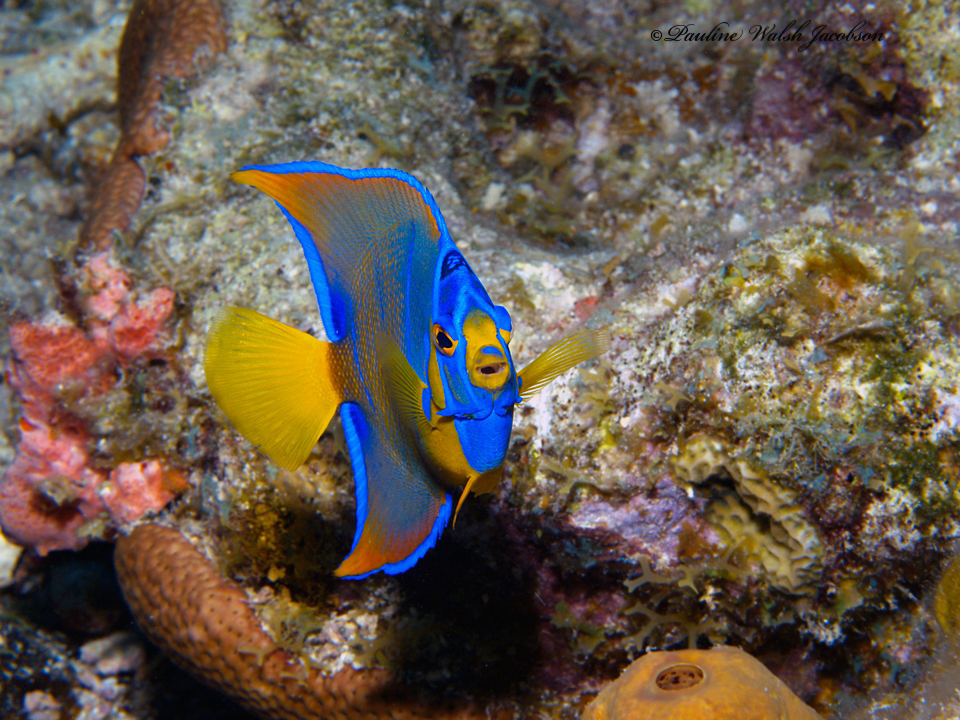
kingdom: Animalia
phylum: Chordata
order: Perciformes
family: Pomacanthidae
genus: Holacanthus
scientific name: Holacanthus ciliaris
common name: Queen angelfish
